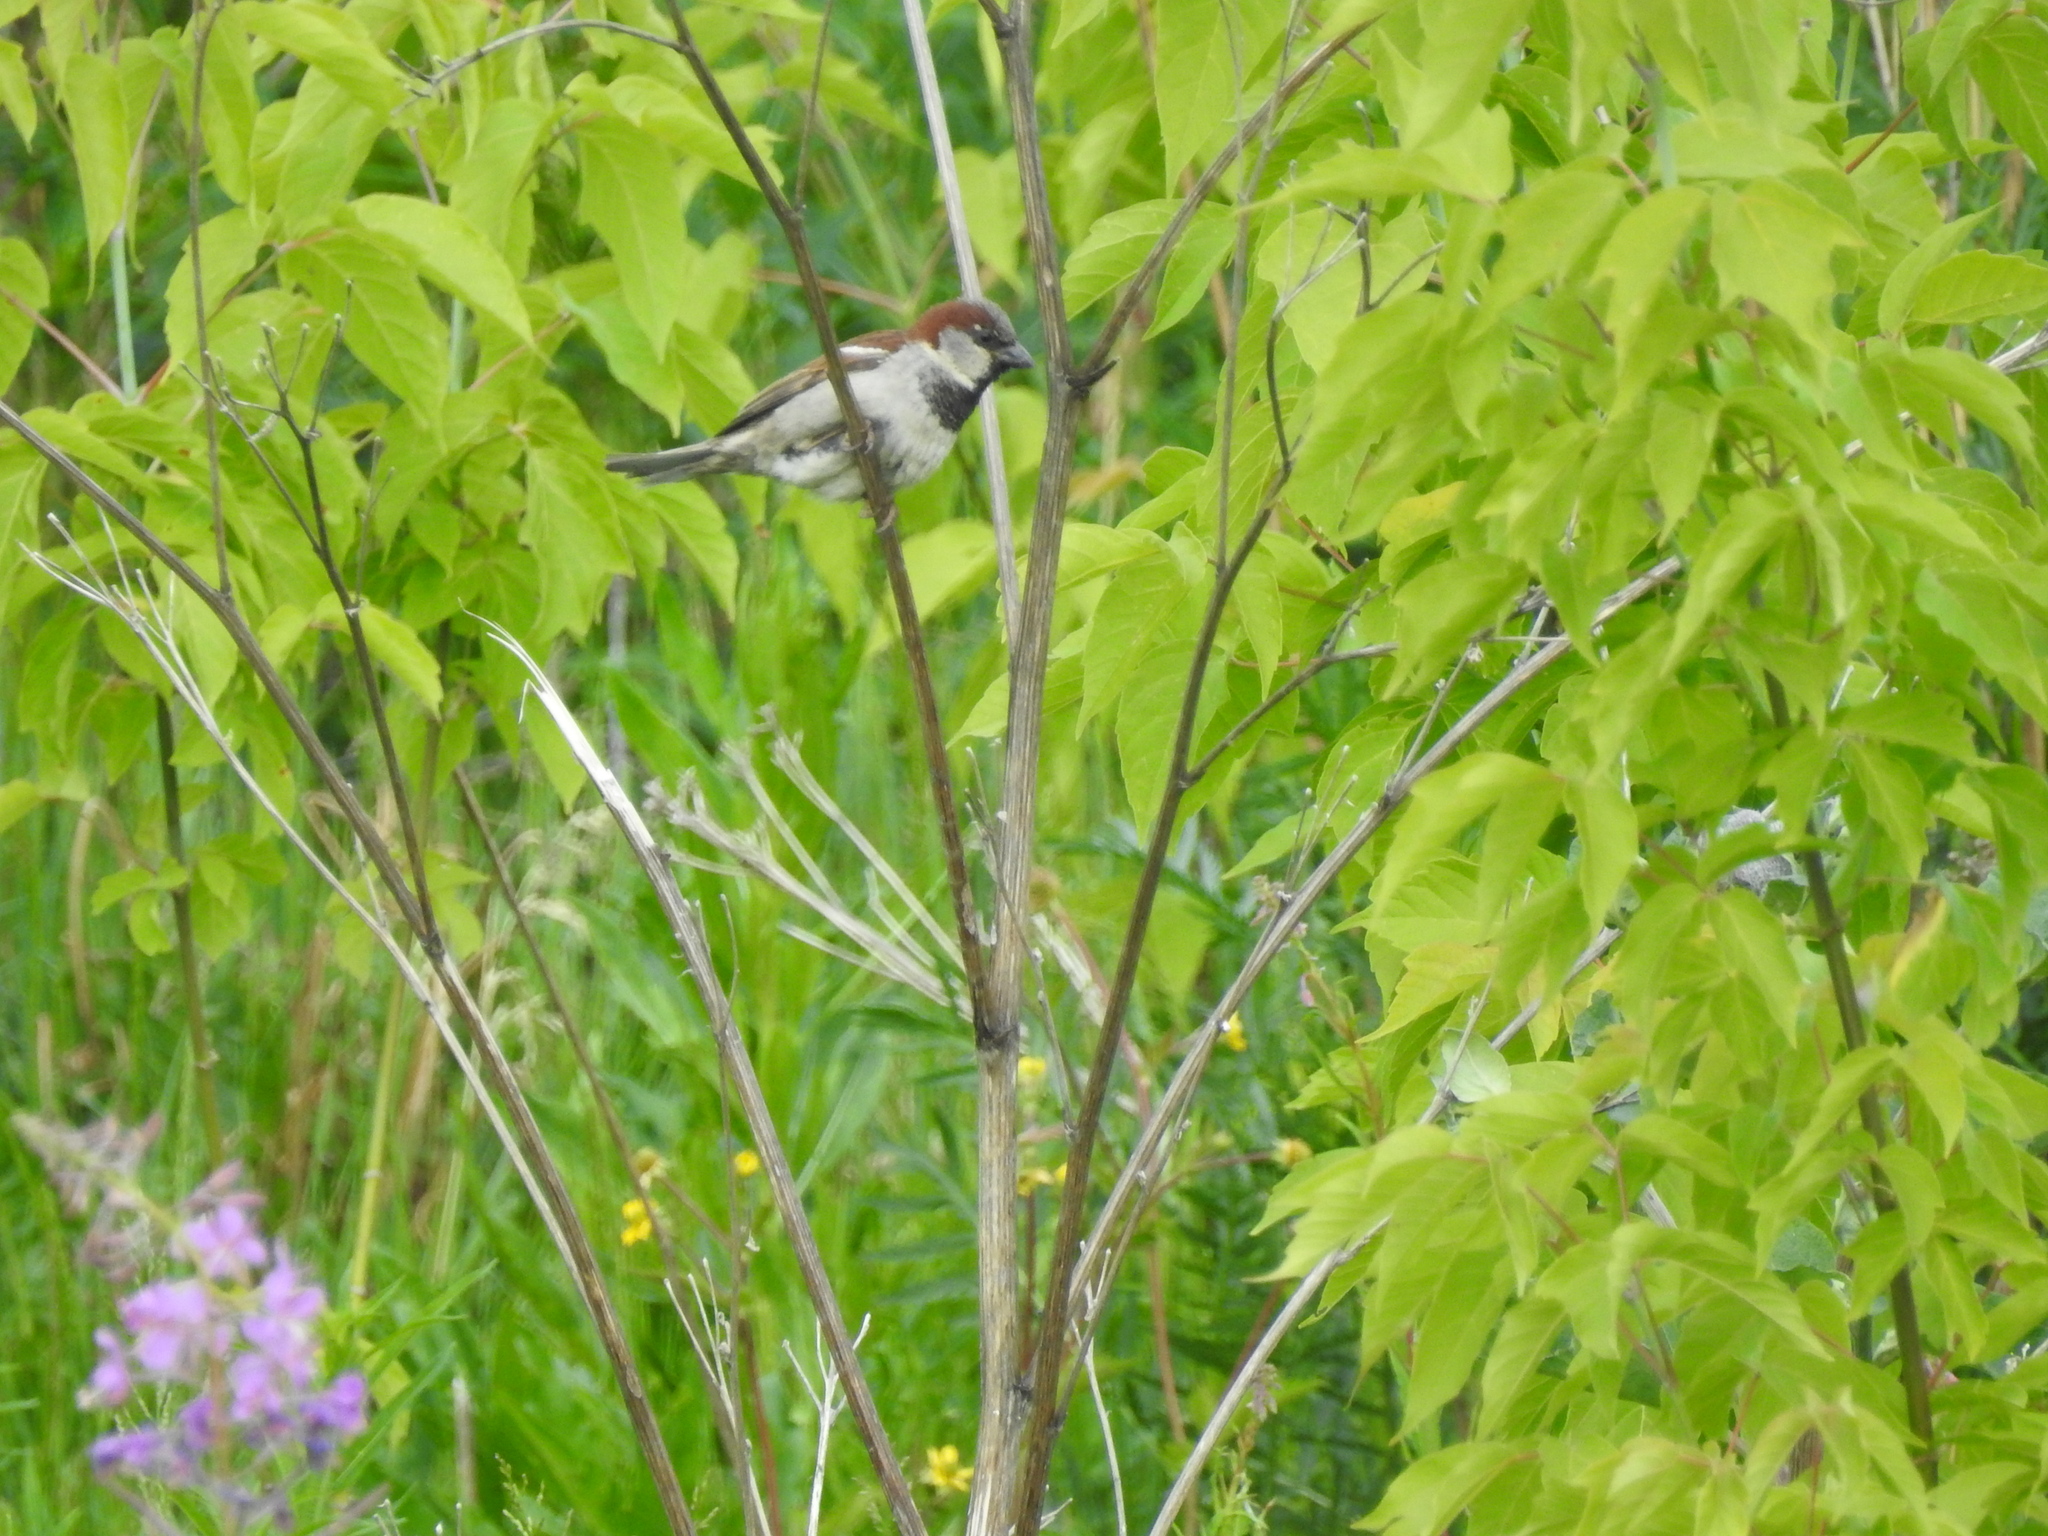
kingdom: Animalia
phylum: Chordata
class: Aves
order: Passeriformes
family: Passeridae
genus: Passer
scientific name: Passer domesticus
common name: House sparrow
